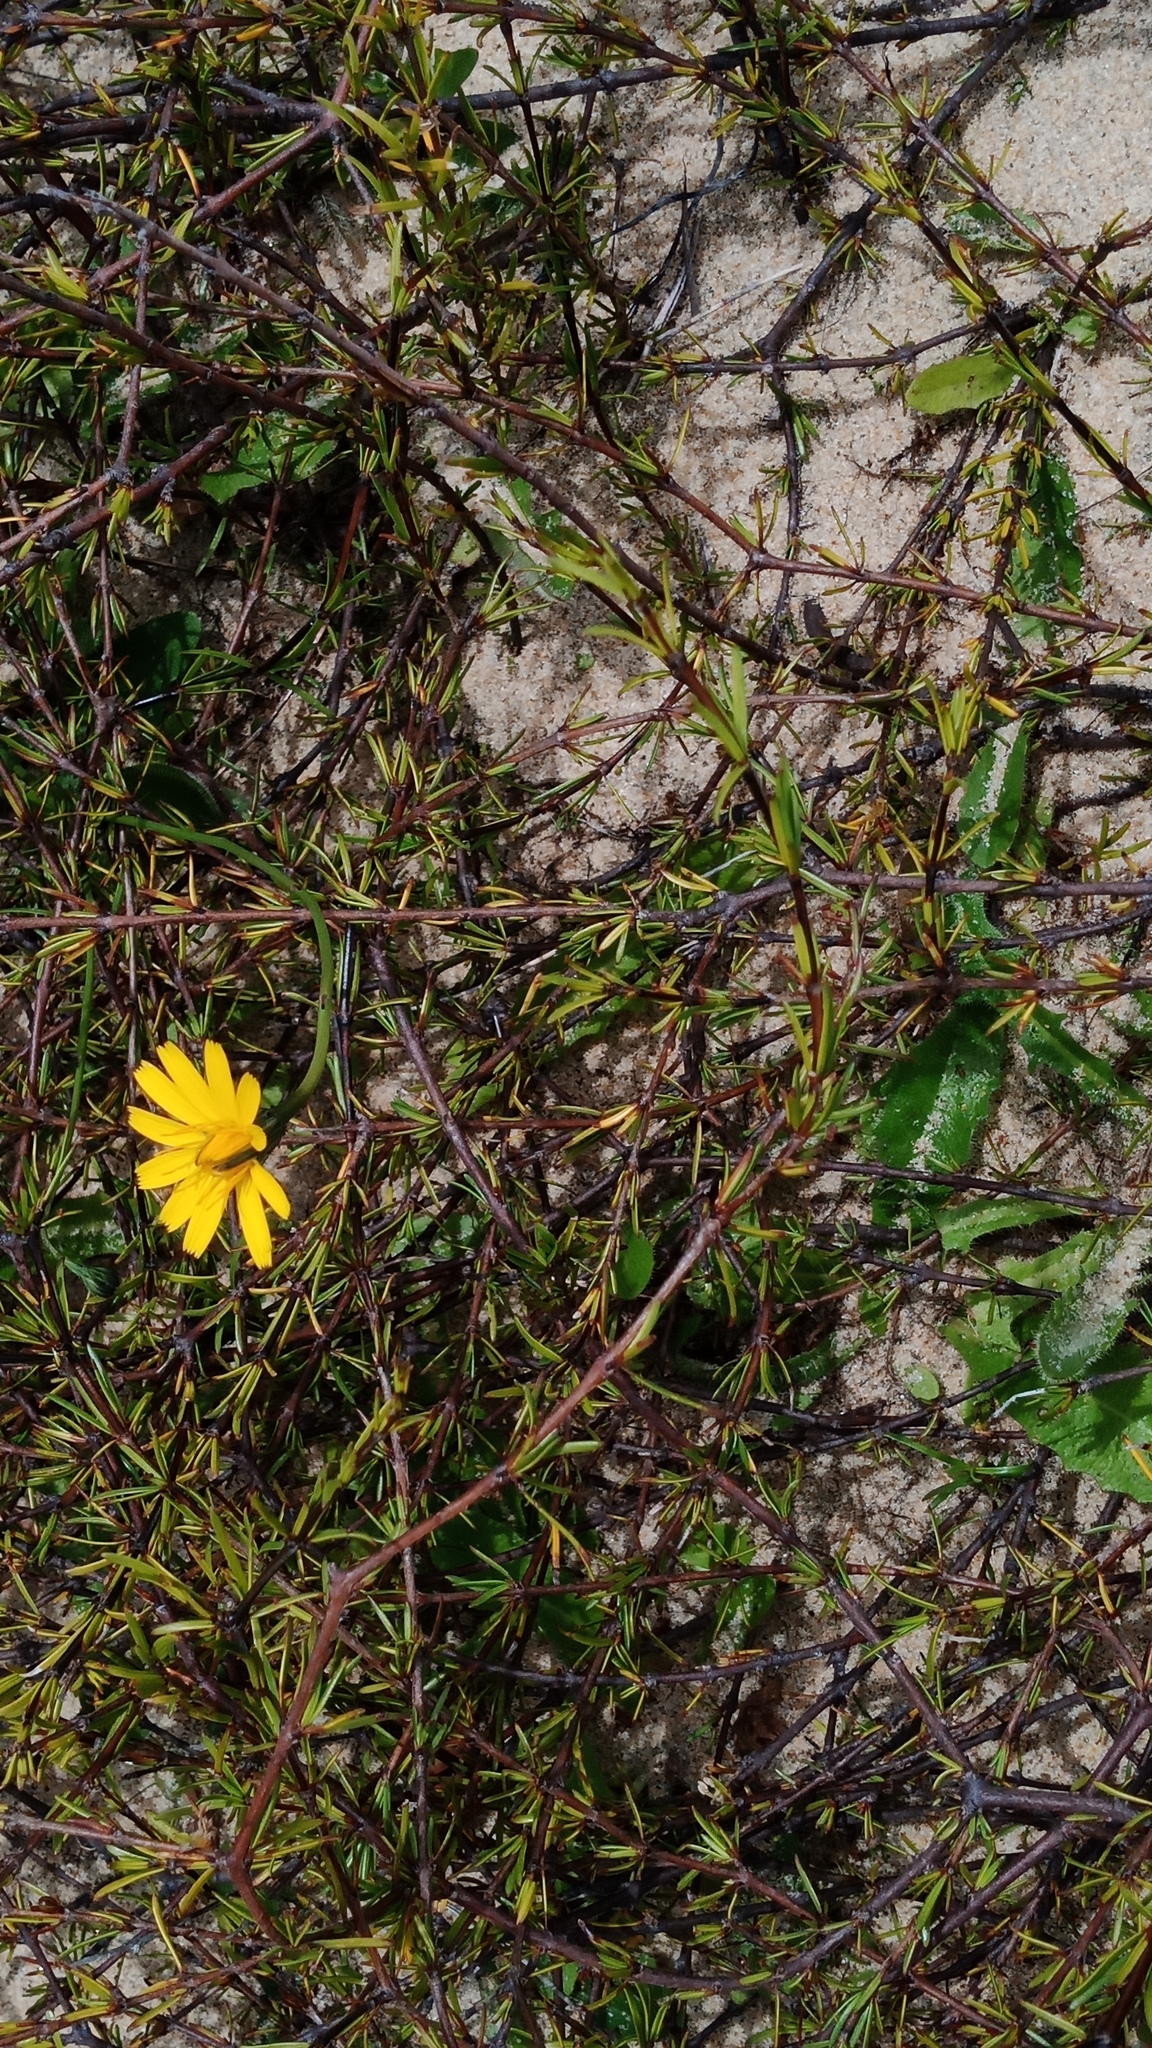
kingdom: Plantae
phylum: Tracheophyta
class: Magnoliopsida
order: Asterales
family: Asteraceae
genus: Hypochaeris
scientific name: Hypochaeris radicata
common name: Flatweed
